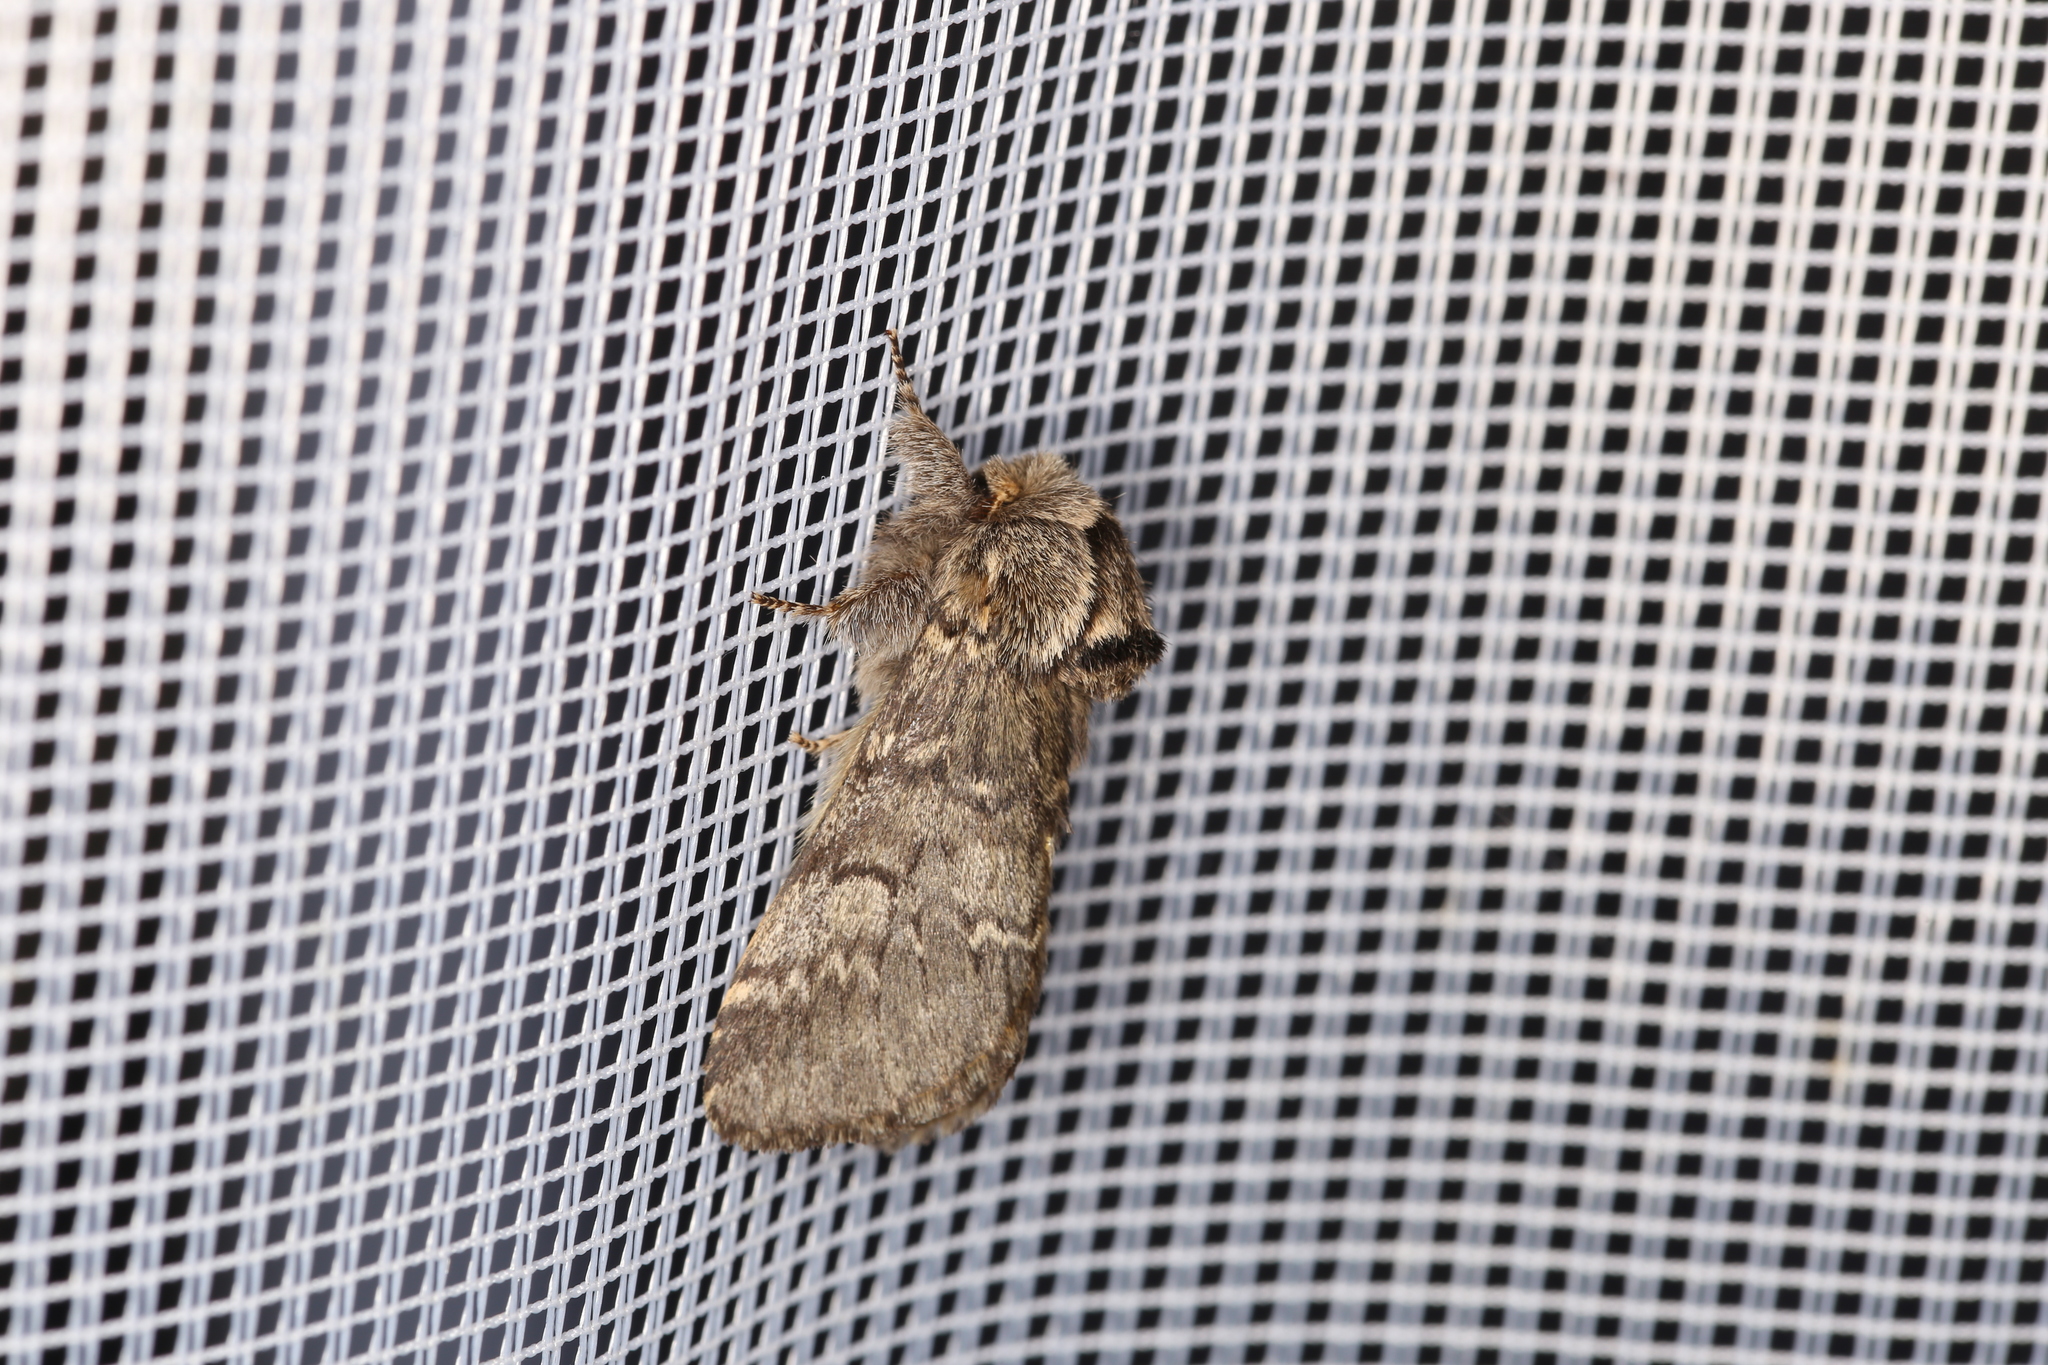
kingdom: Animalia
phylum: Arthropoda
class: Insecta
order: Lepidoptera
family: Notodontidae
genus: Drymonia
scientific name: Drymonia ruficornis
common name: Lunar marbled brown
